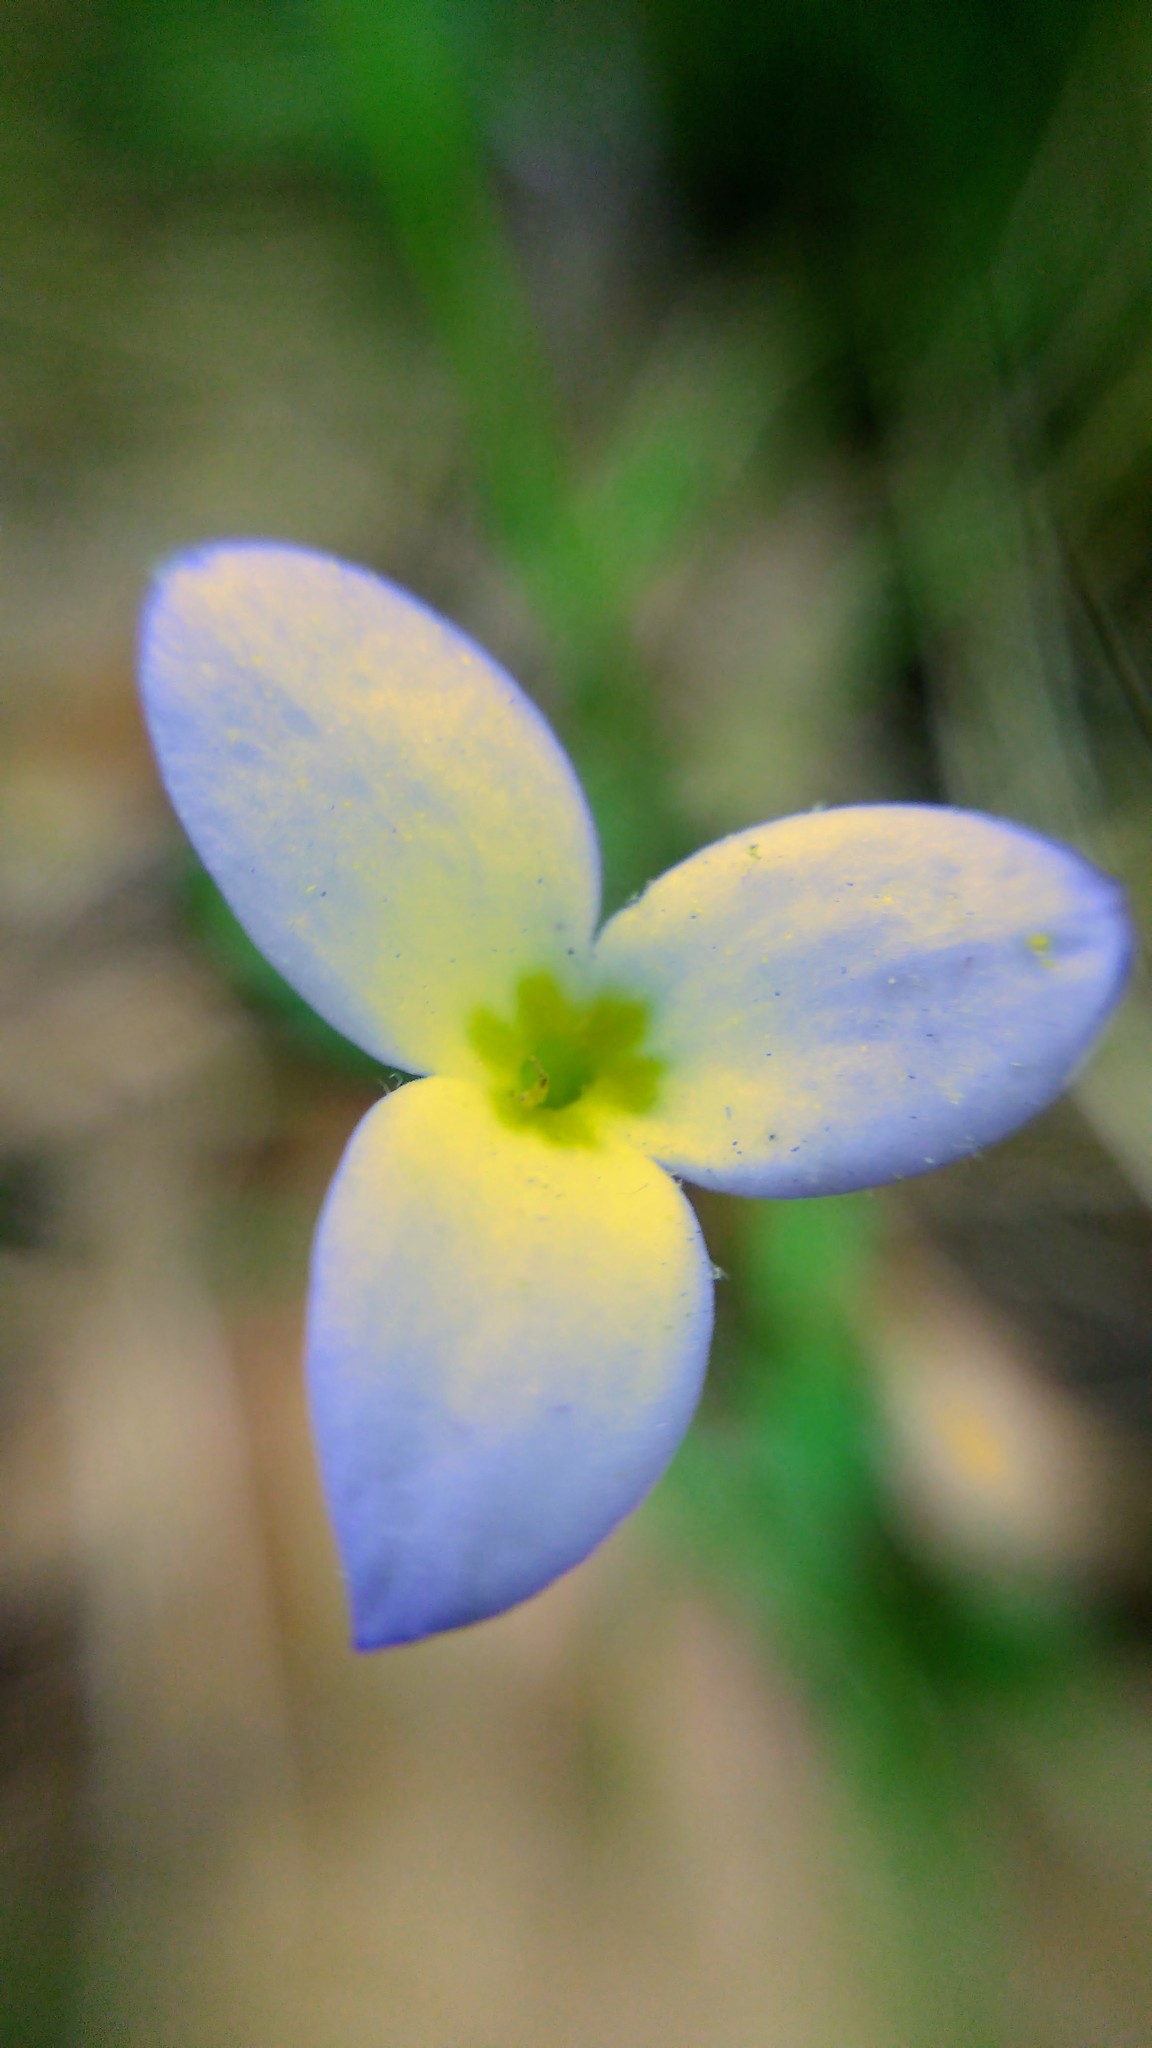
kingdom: Plantae
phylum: Tracheophyta
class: Magnoliopsida
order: Gentianales
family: Rubiaceae
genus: Houstonia
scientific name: Houstonia caerulea
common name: Bluets
